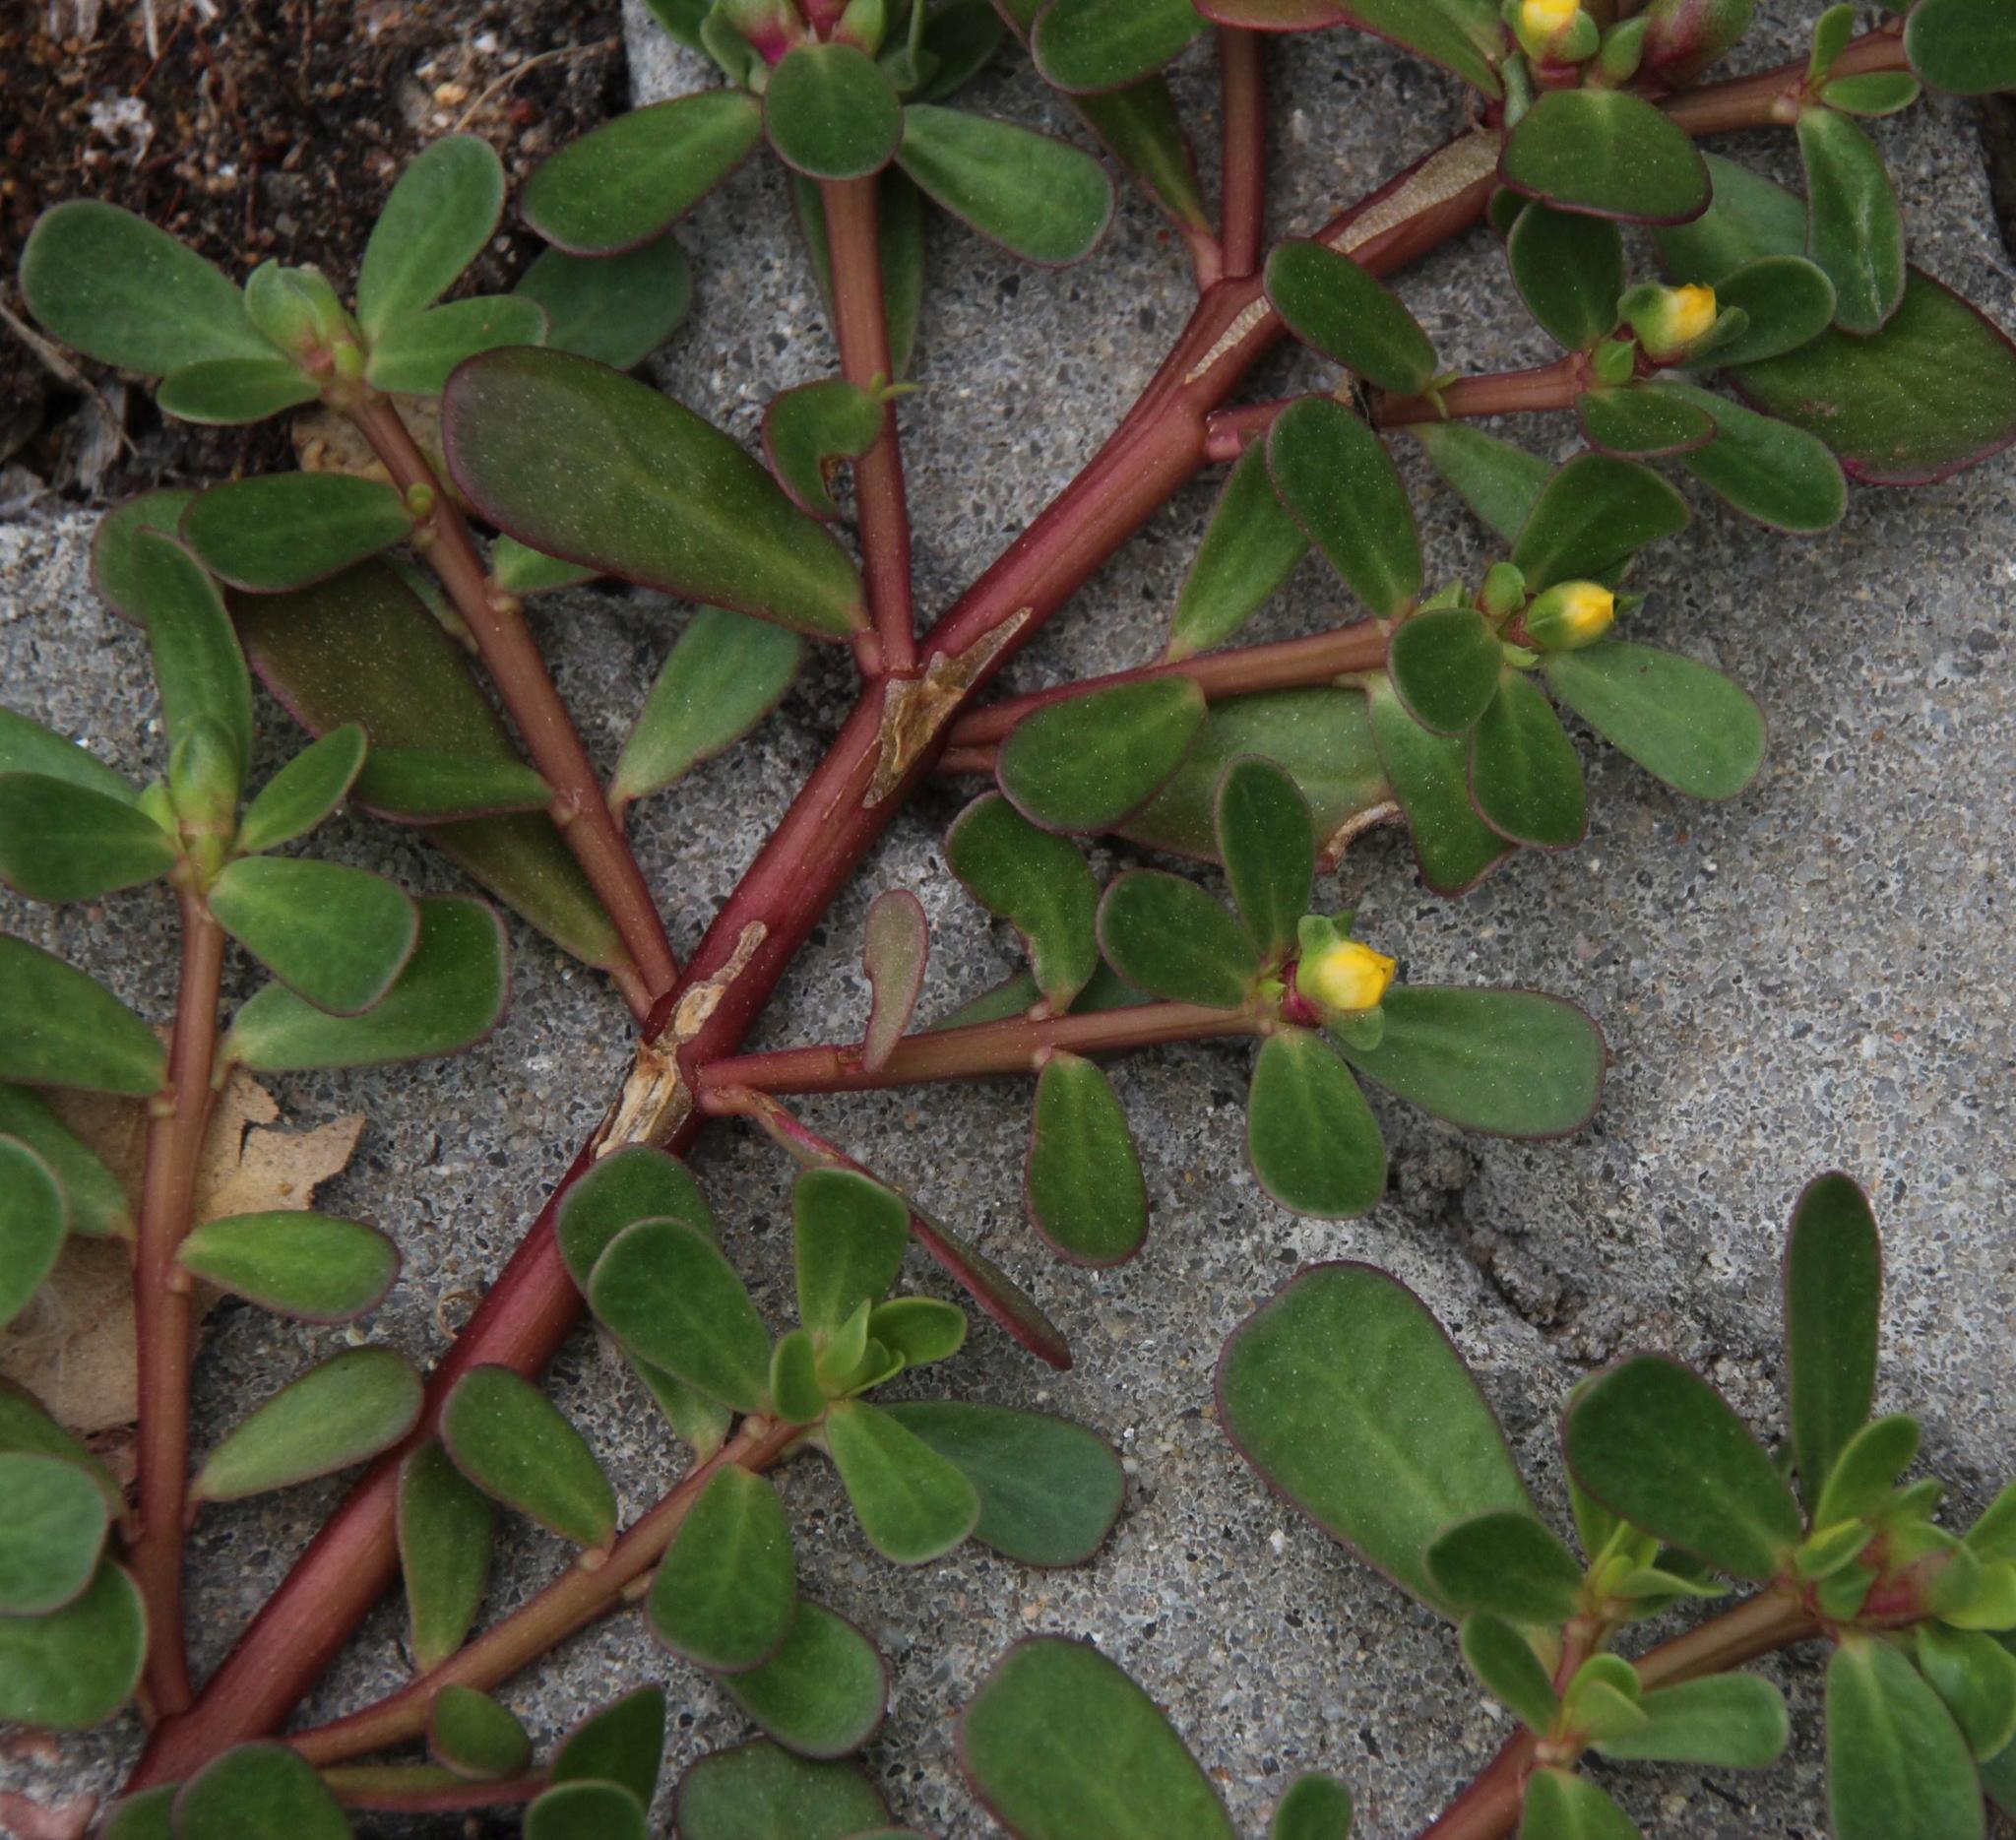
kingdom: Plantae
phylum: Tracheophyta
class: Magnoliopsida
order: Caryophyllales
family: Portulacaceae
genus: Portulaca
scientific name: Portulaca oleracea
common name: Common purslane
